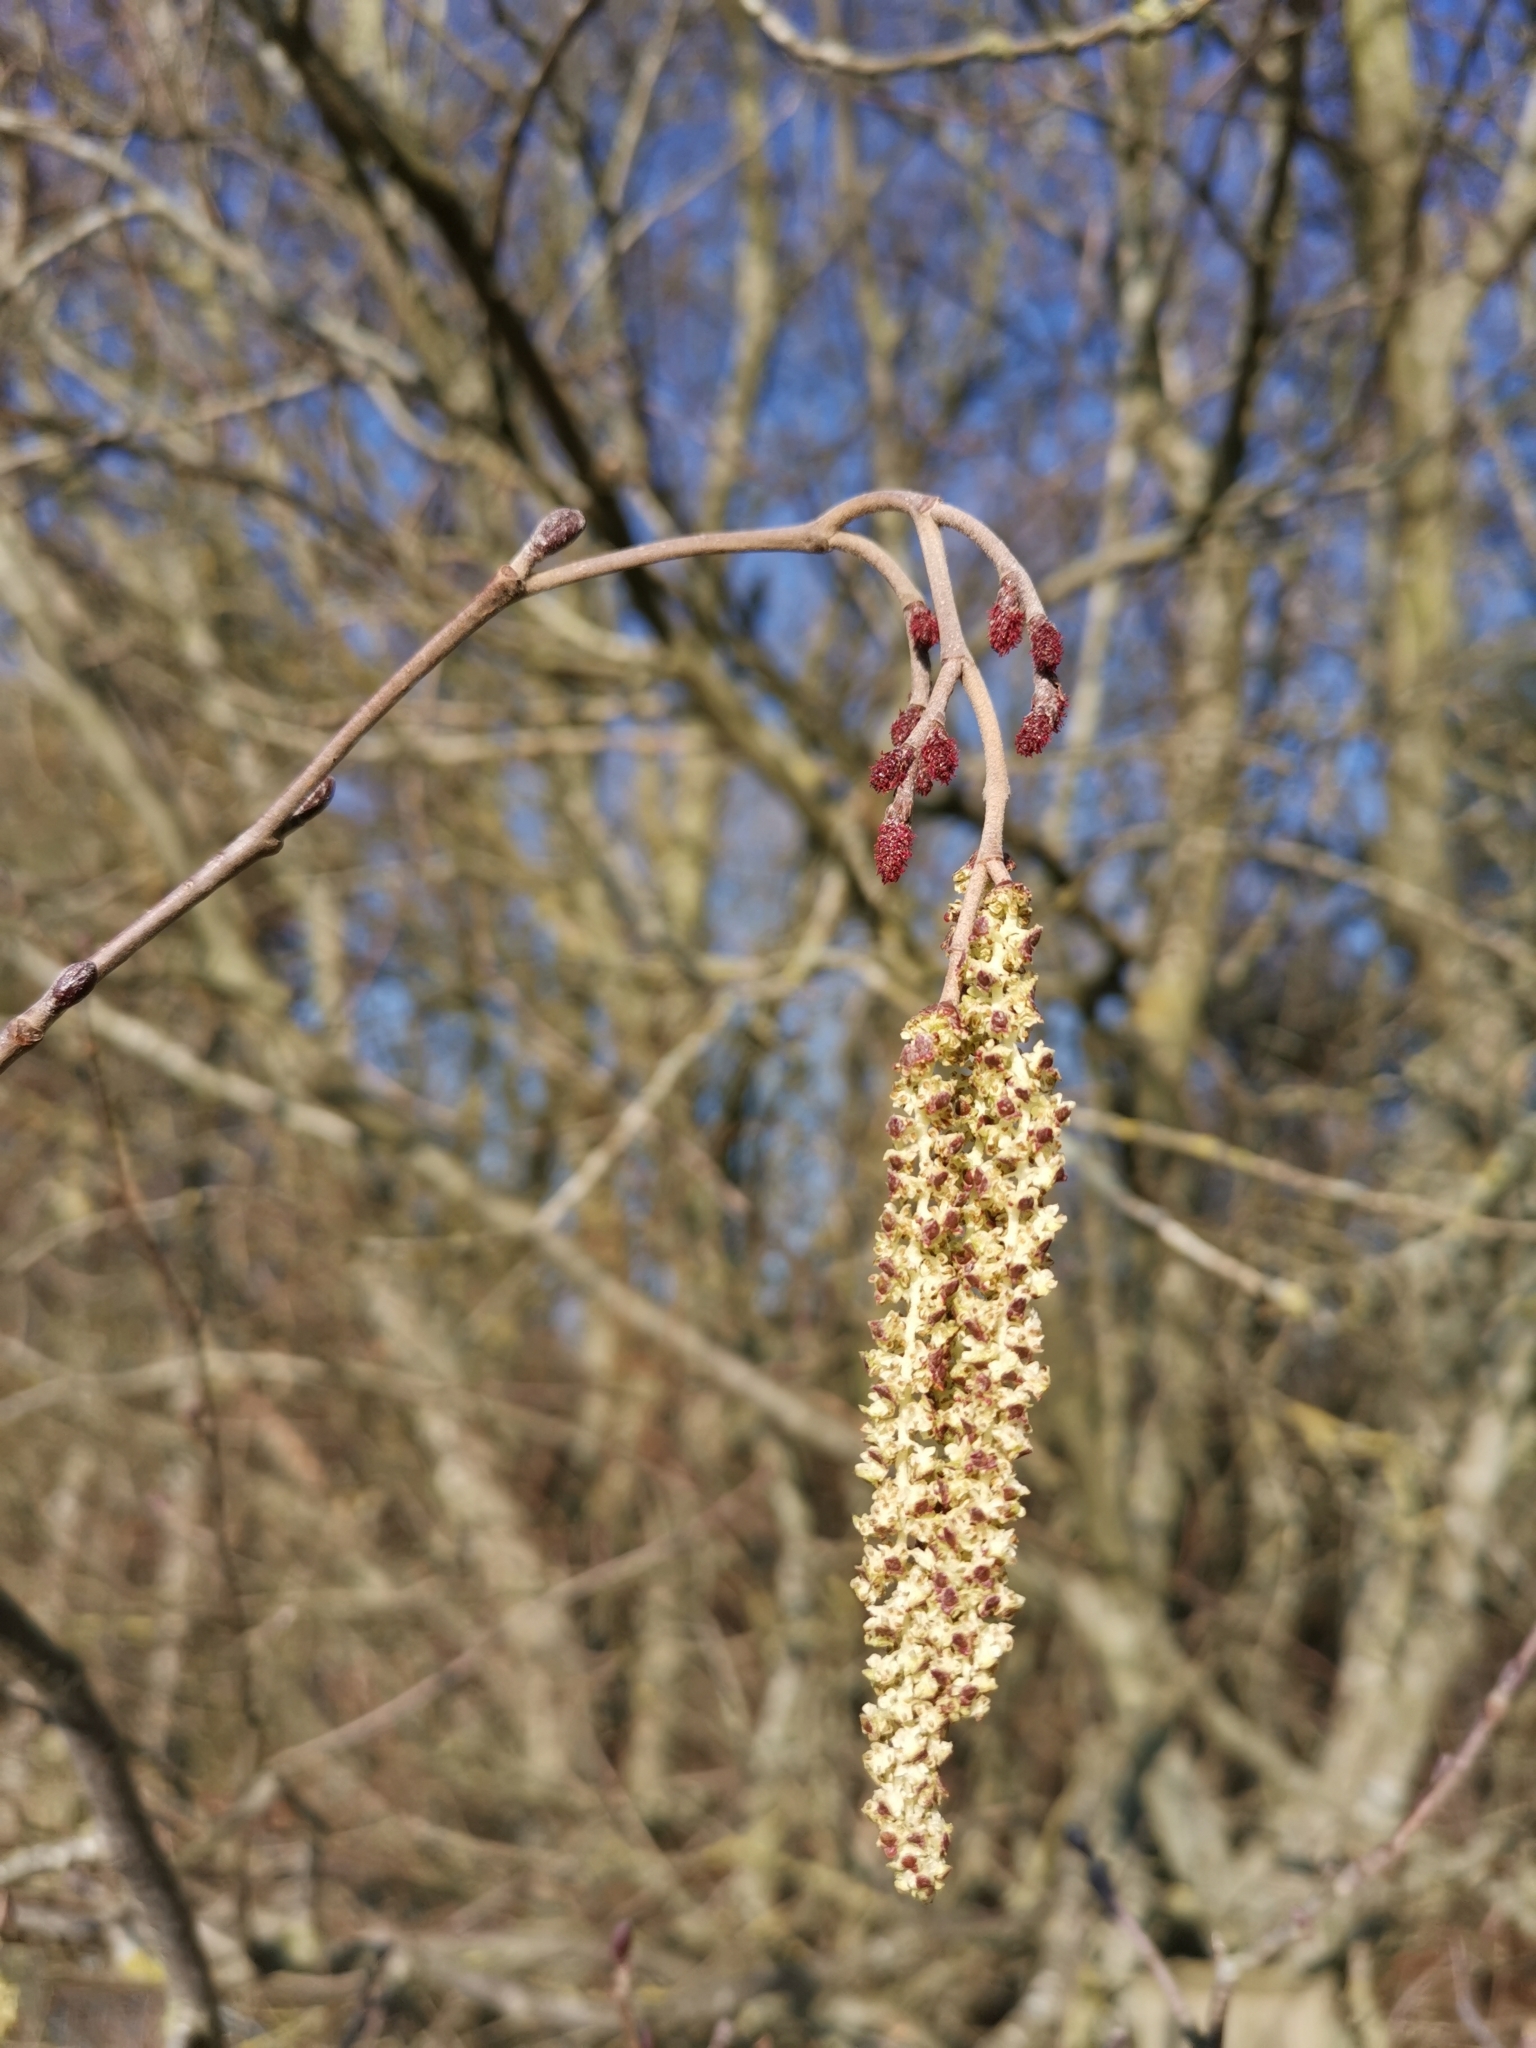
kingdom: Plantae
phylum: Tracheophyta
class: Magnoliopsida
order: Fagales
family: Betulaceae
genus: Alnus
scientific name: Alnus glutinosa
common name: Black alder
